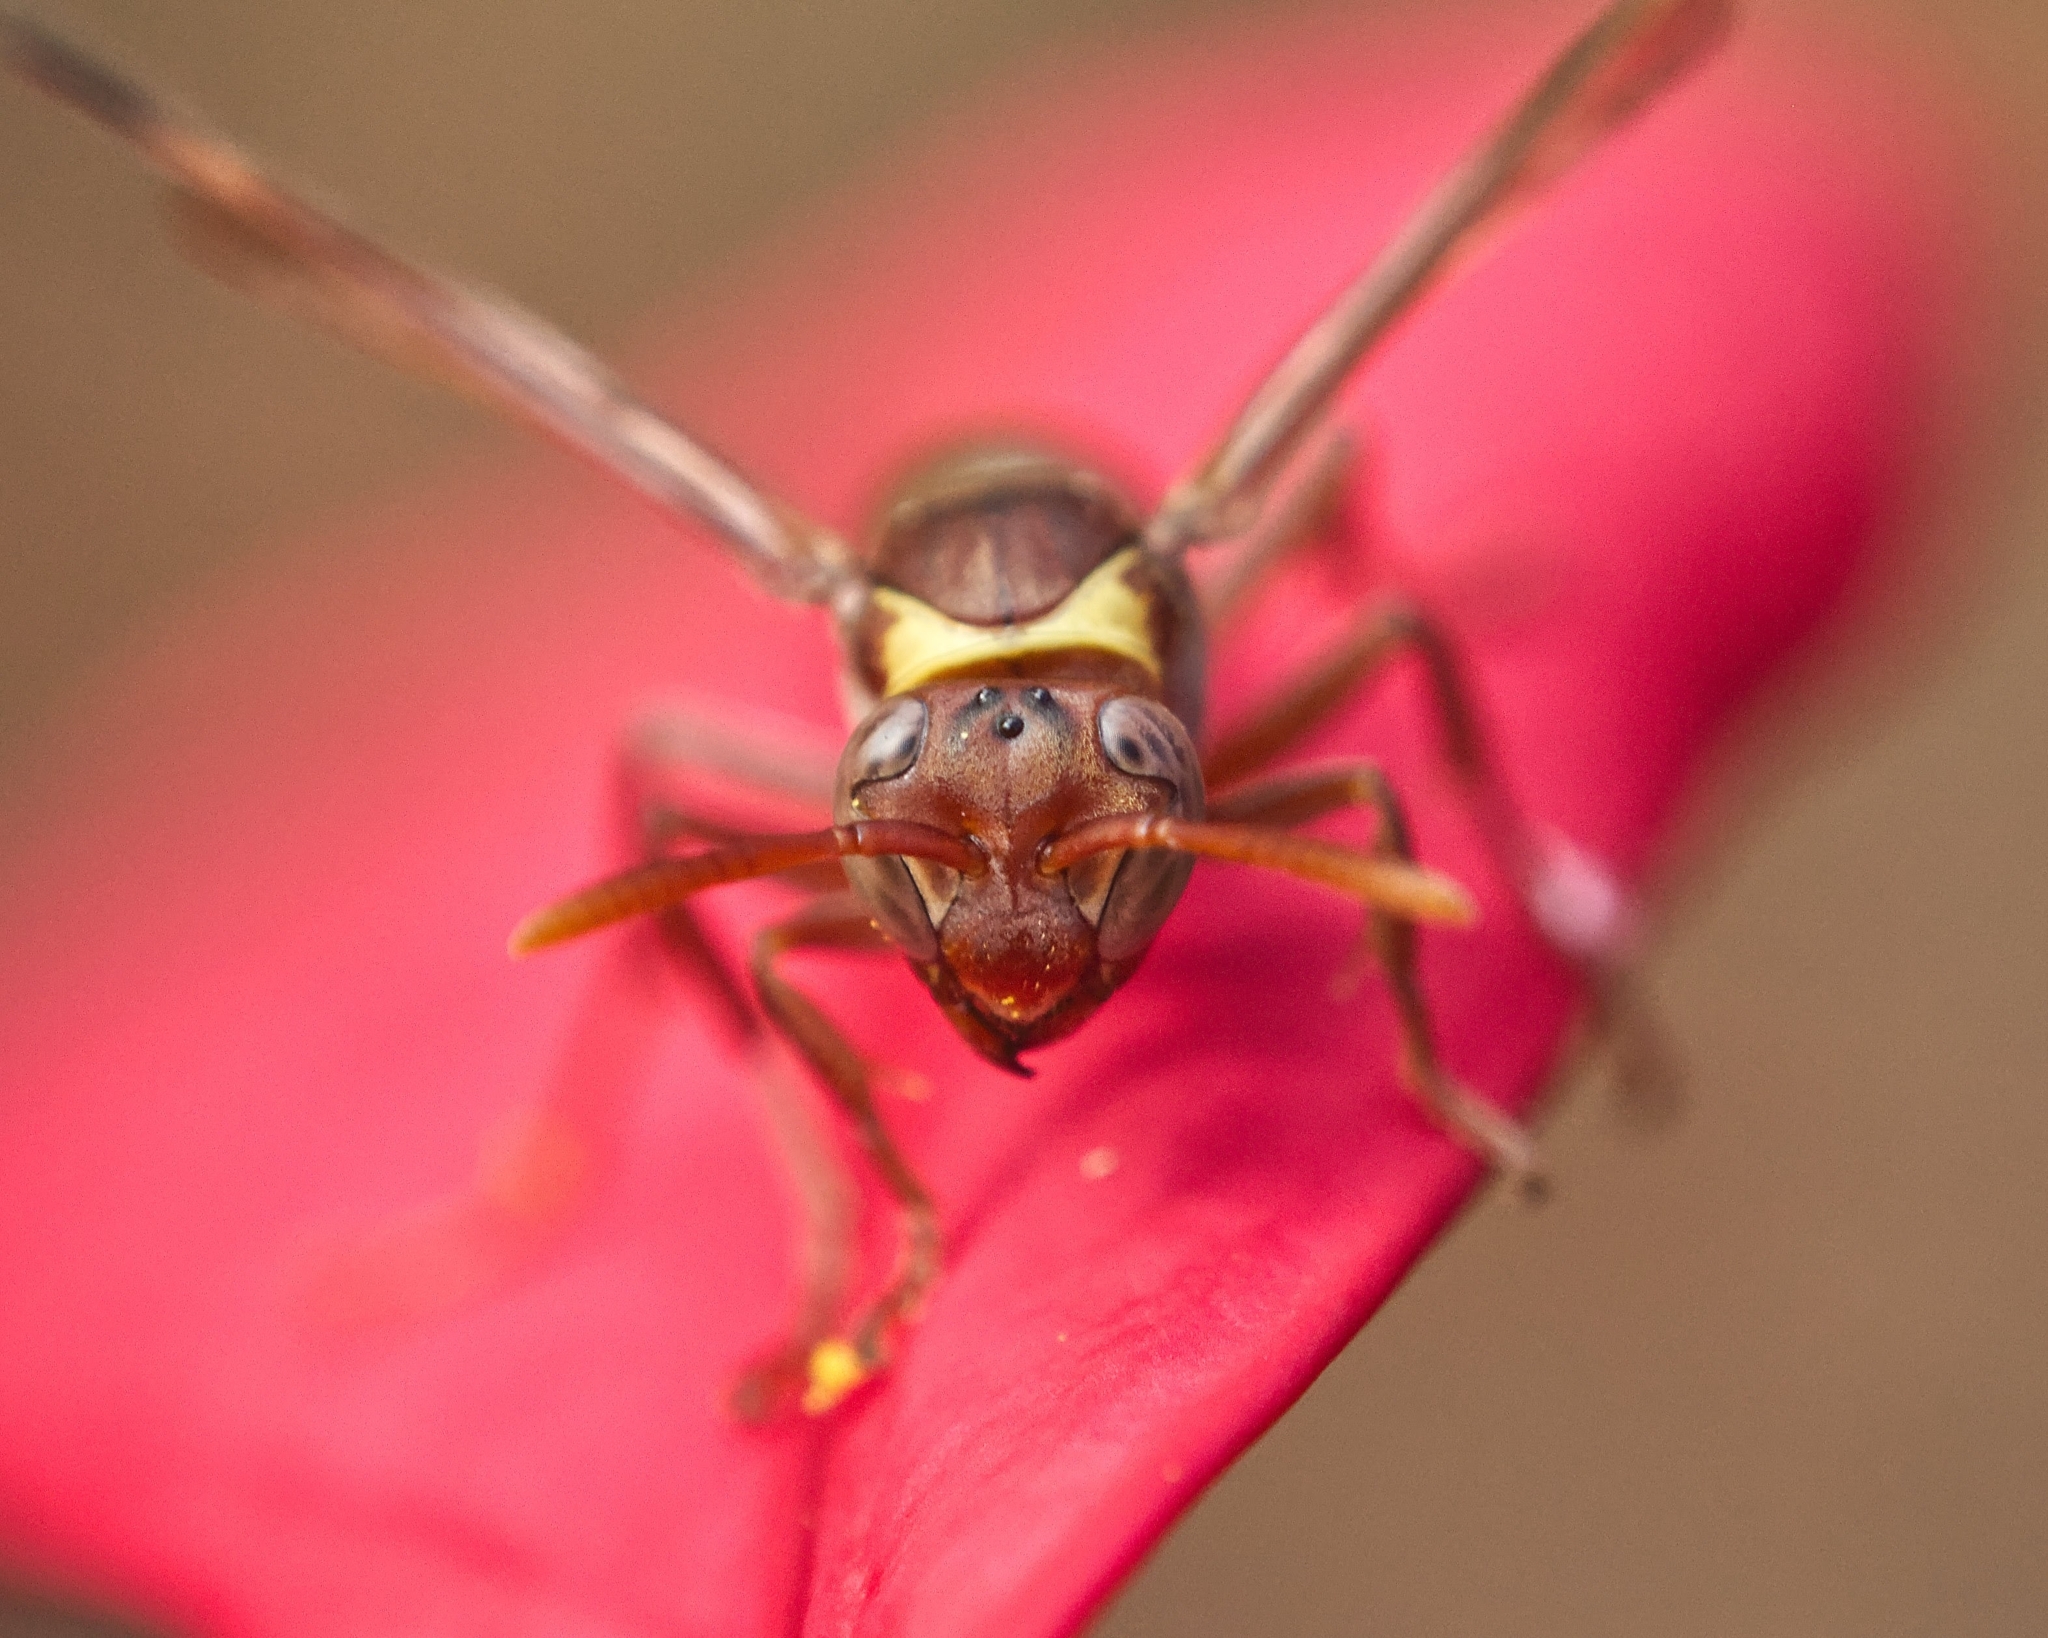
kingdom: Animalia
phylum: Arthropoda
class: Insecta
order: Hymenoptera
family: Eumenidae
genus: Polistes
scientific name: Polistes badius
